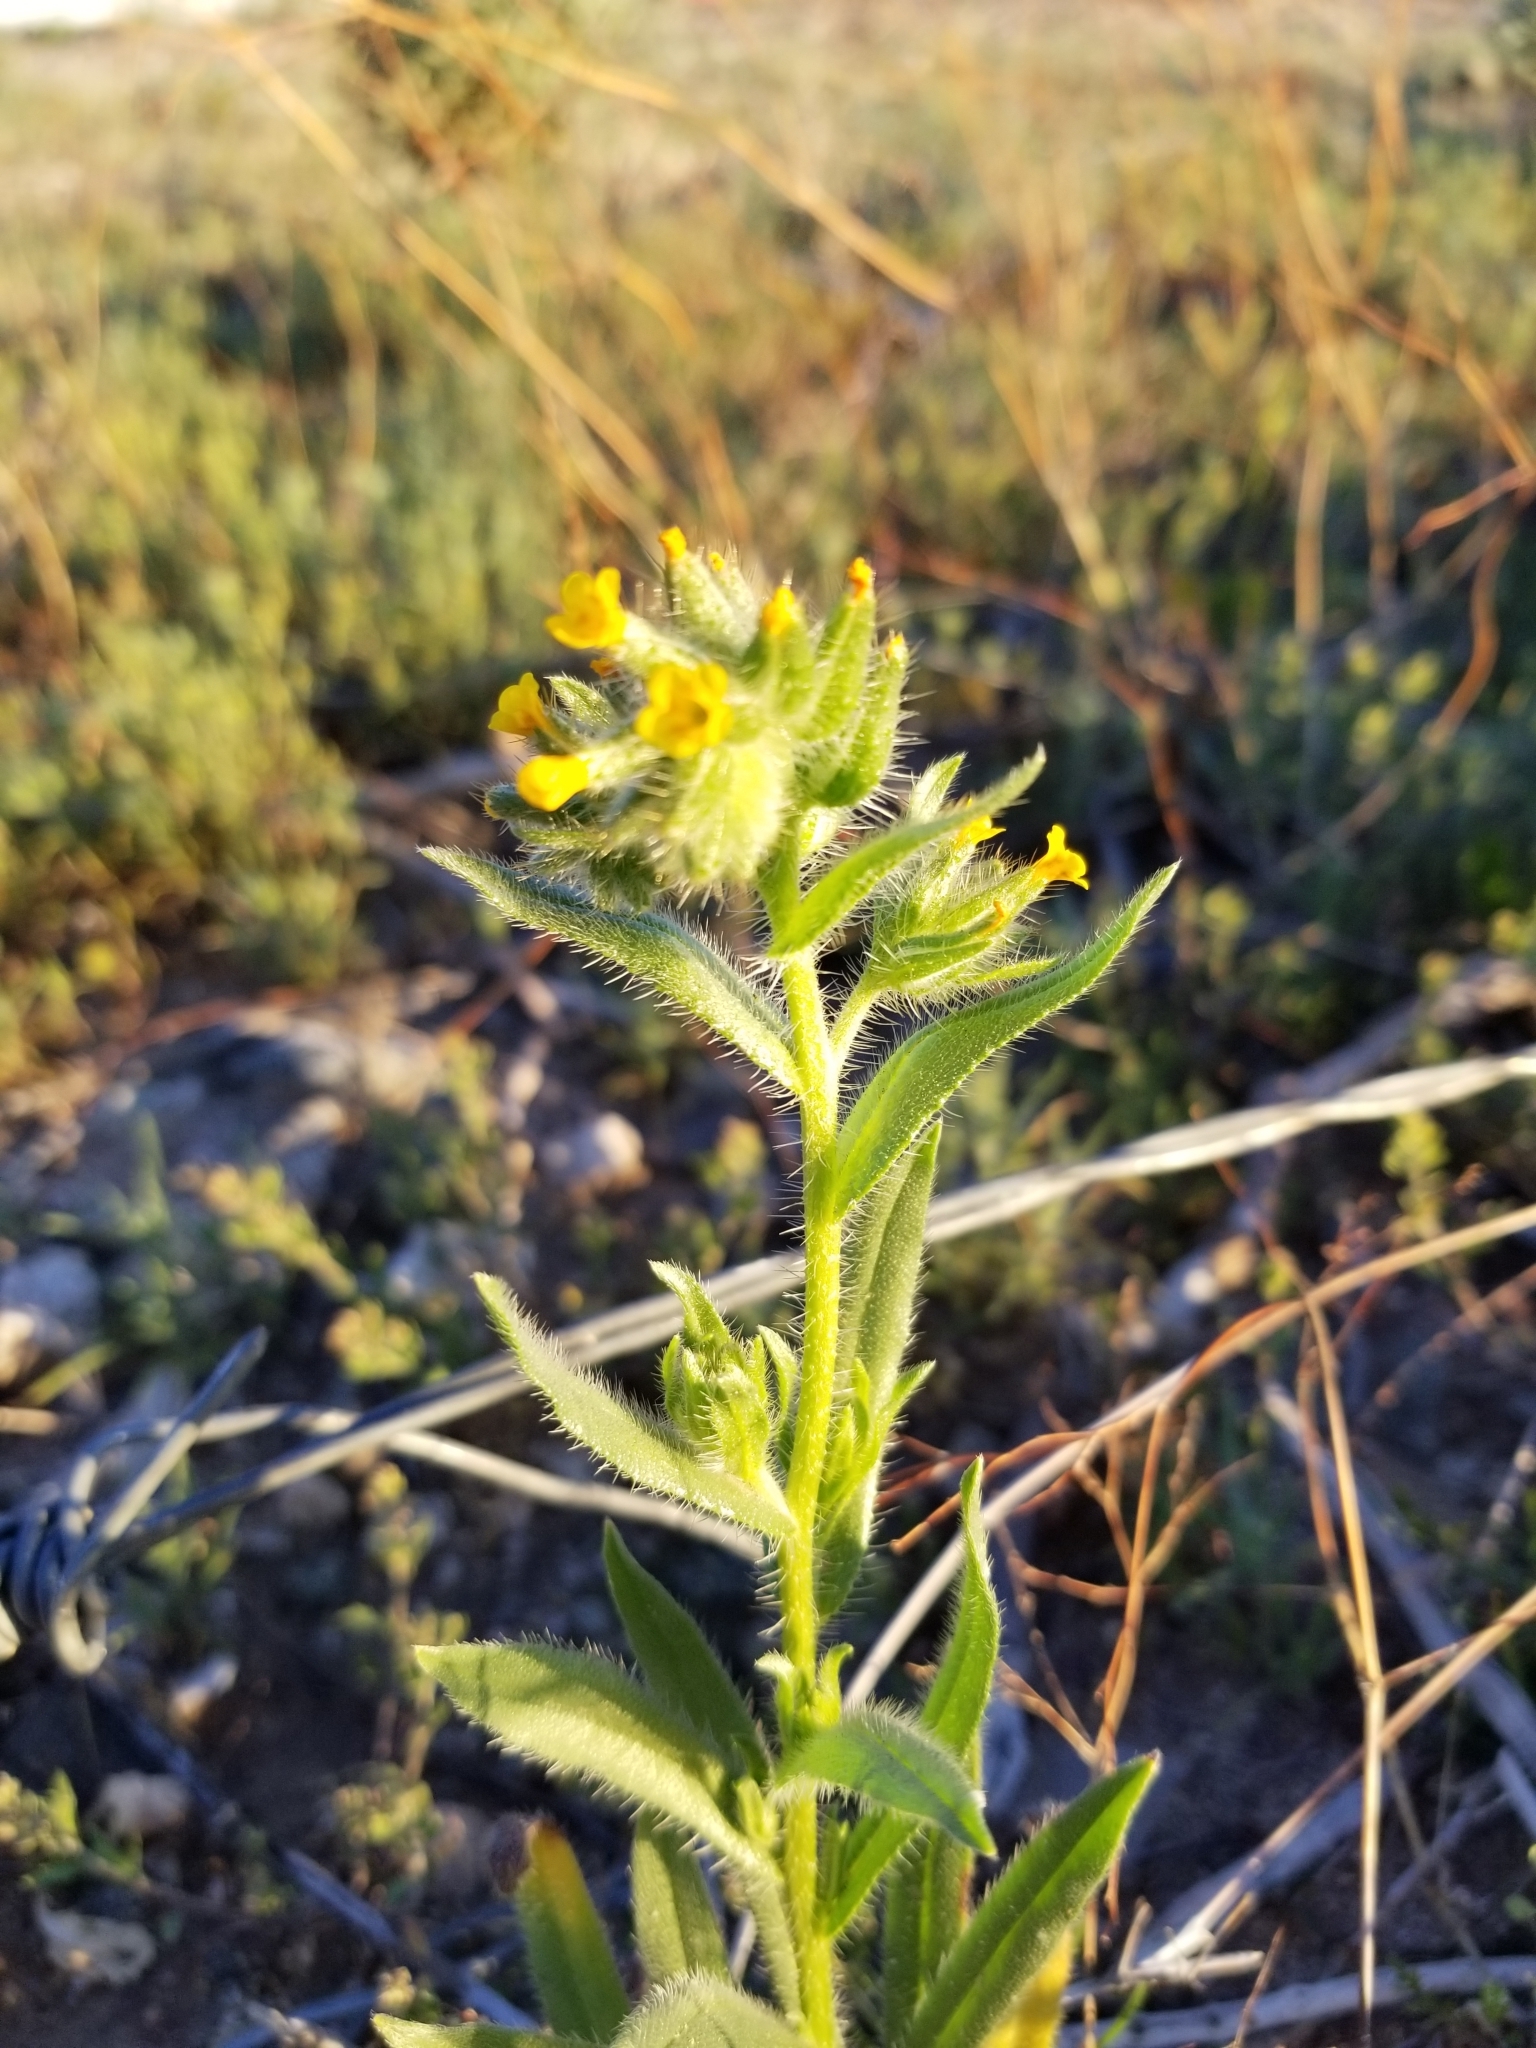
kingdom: Plantae
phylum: Tracheophyta
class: Magnoliopsida
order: Boraginales
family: Boraginaceae
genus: Amsinckia
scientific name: Amsinckia tessellata
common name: Tessellate fiddleneck
